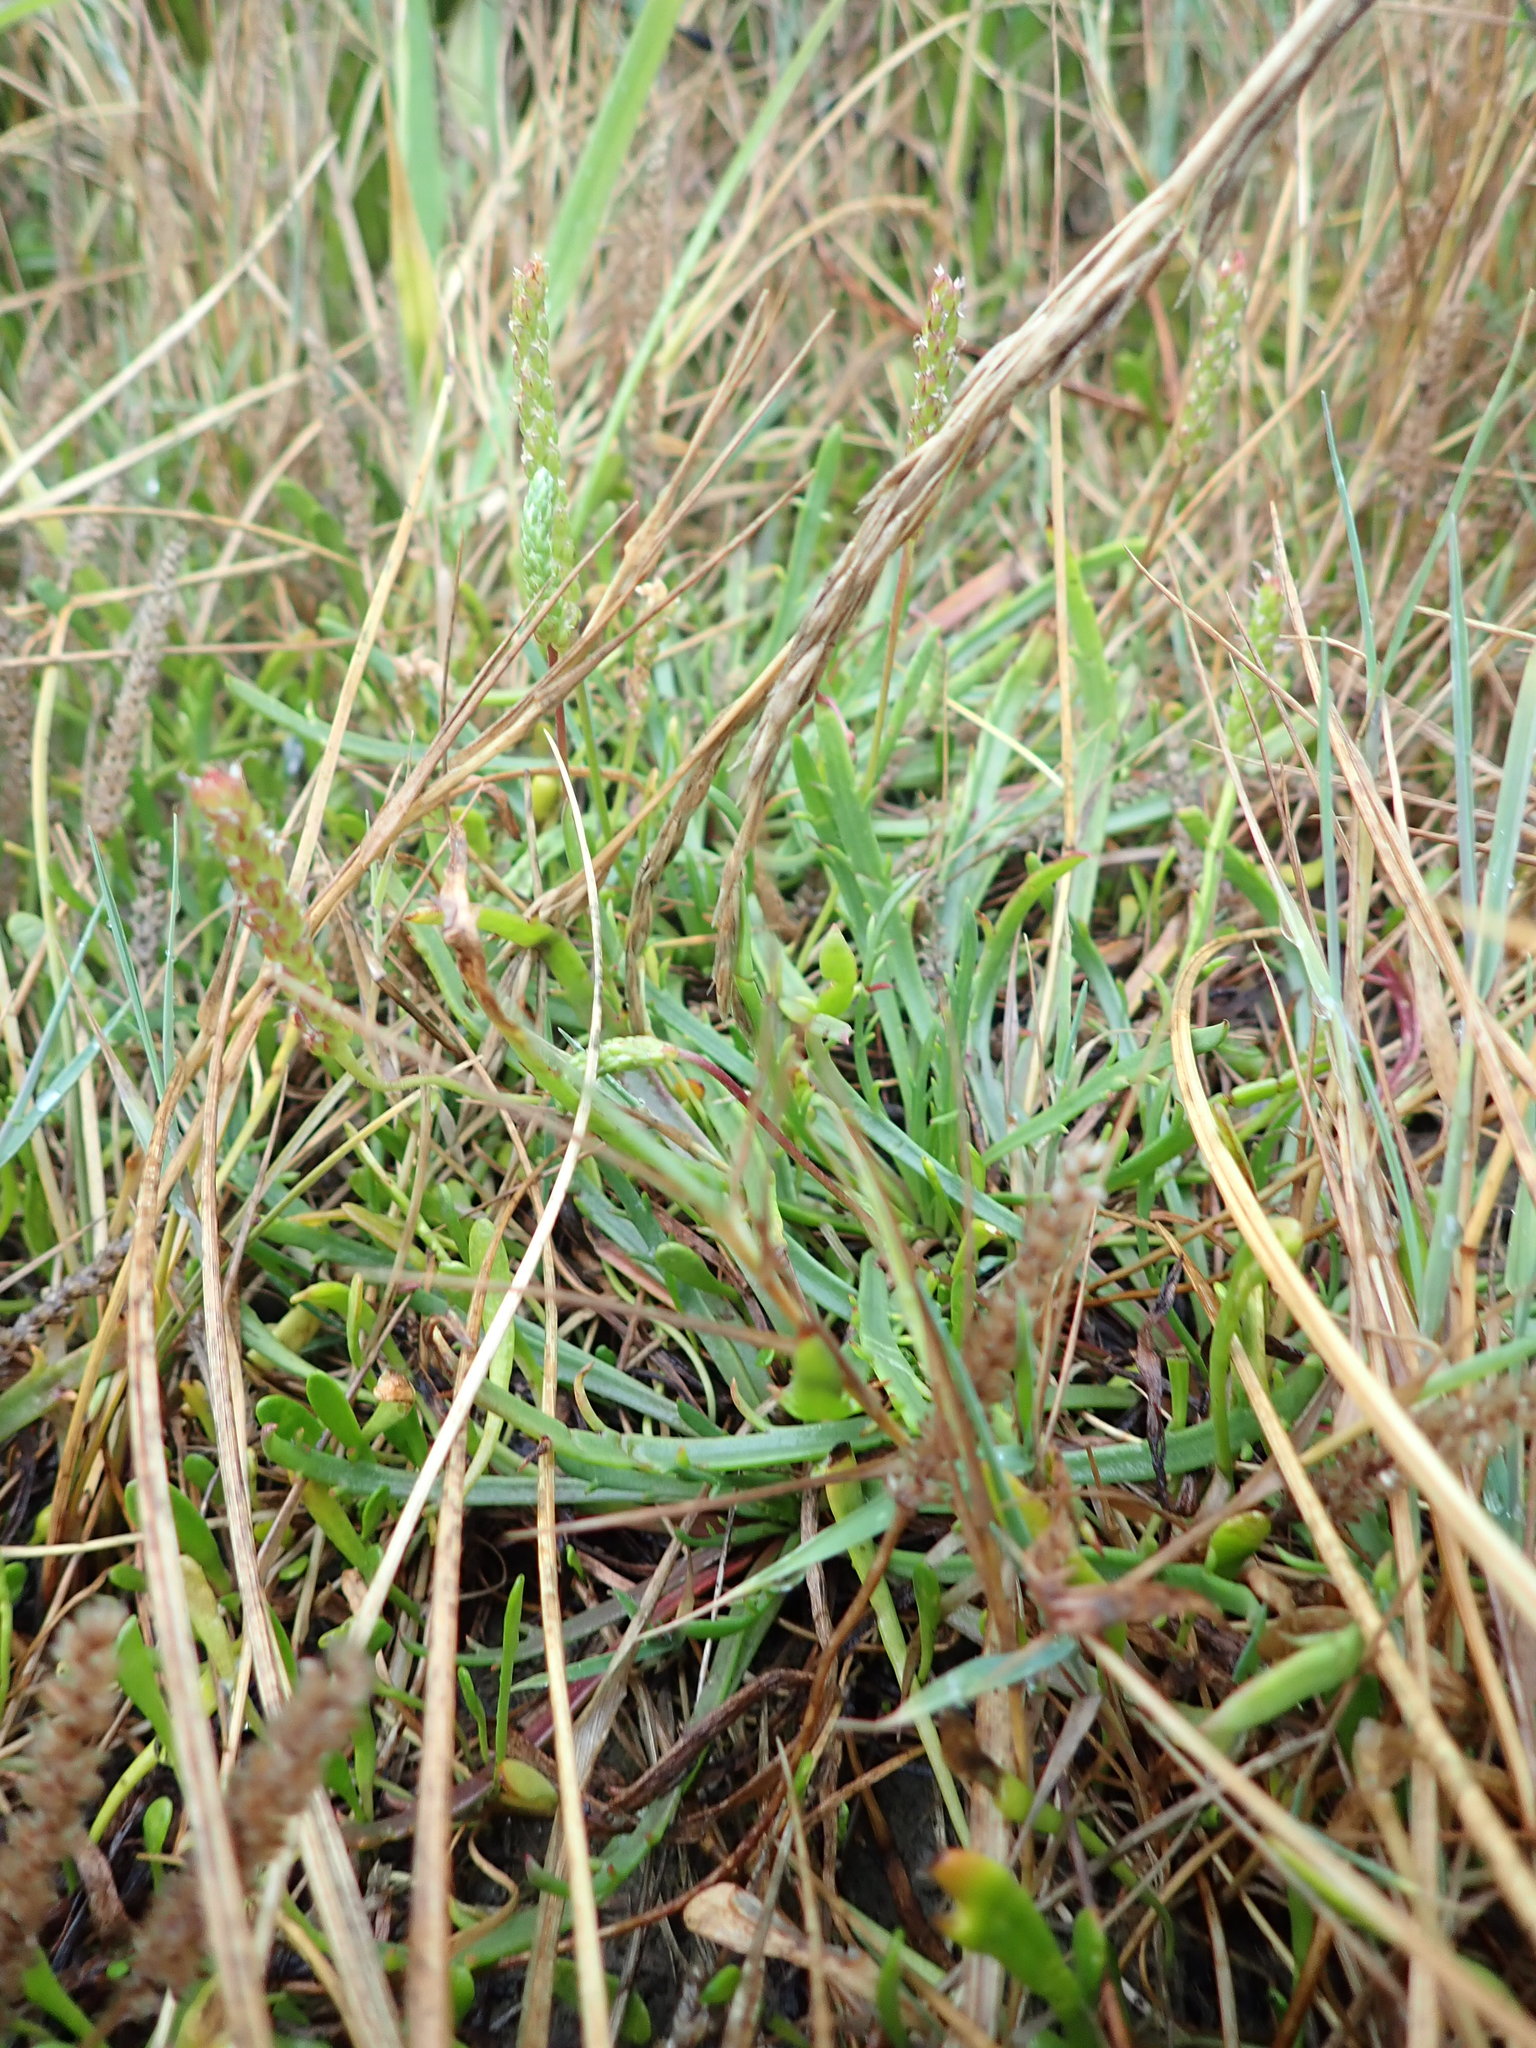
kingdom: Plantae
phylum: Tracheophyta
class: Magnoliopsida
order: Lamiales
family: Plantaginaceae
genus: Plantago
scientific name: Plantago coronopus
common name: Buck's-horn plantain
